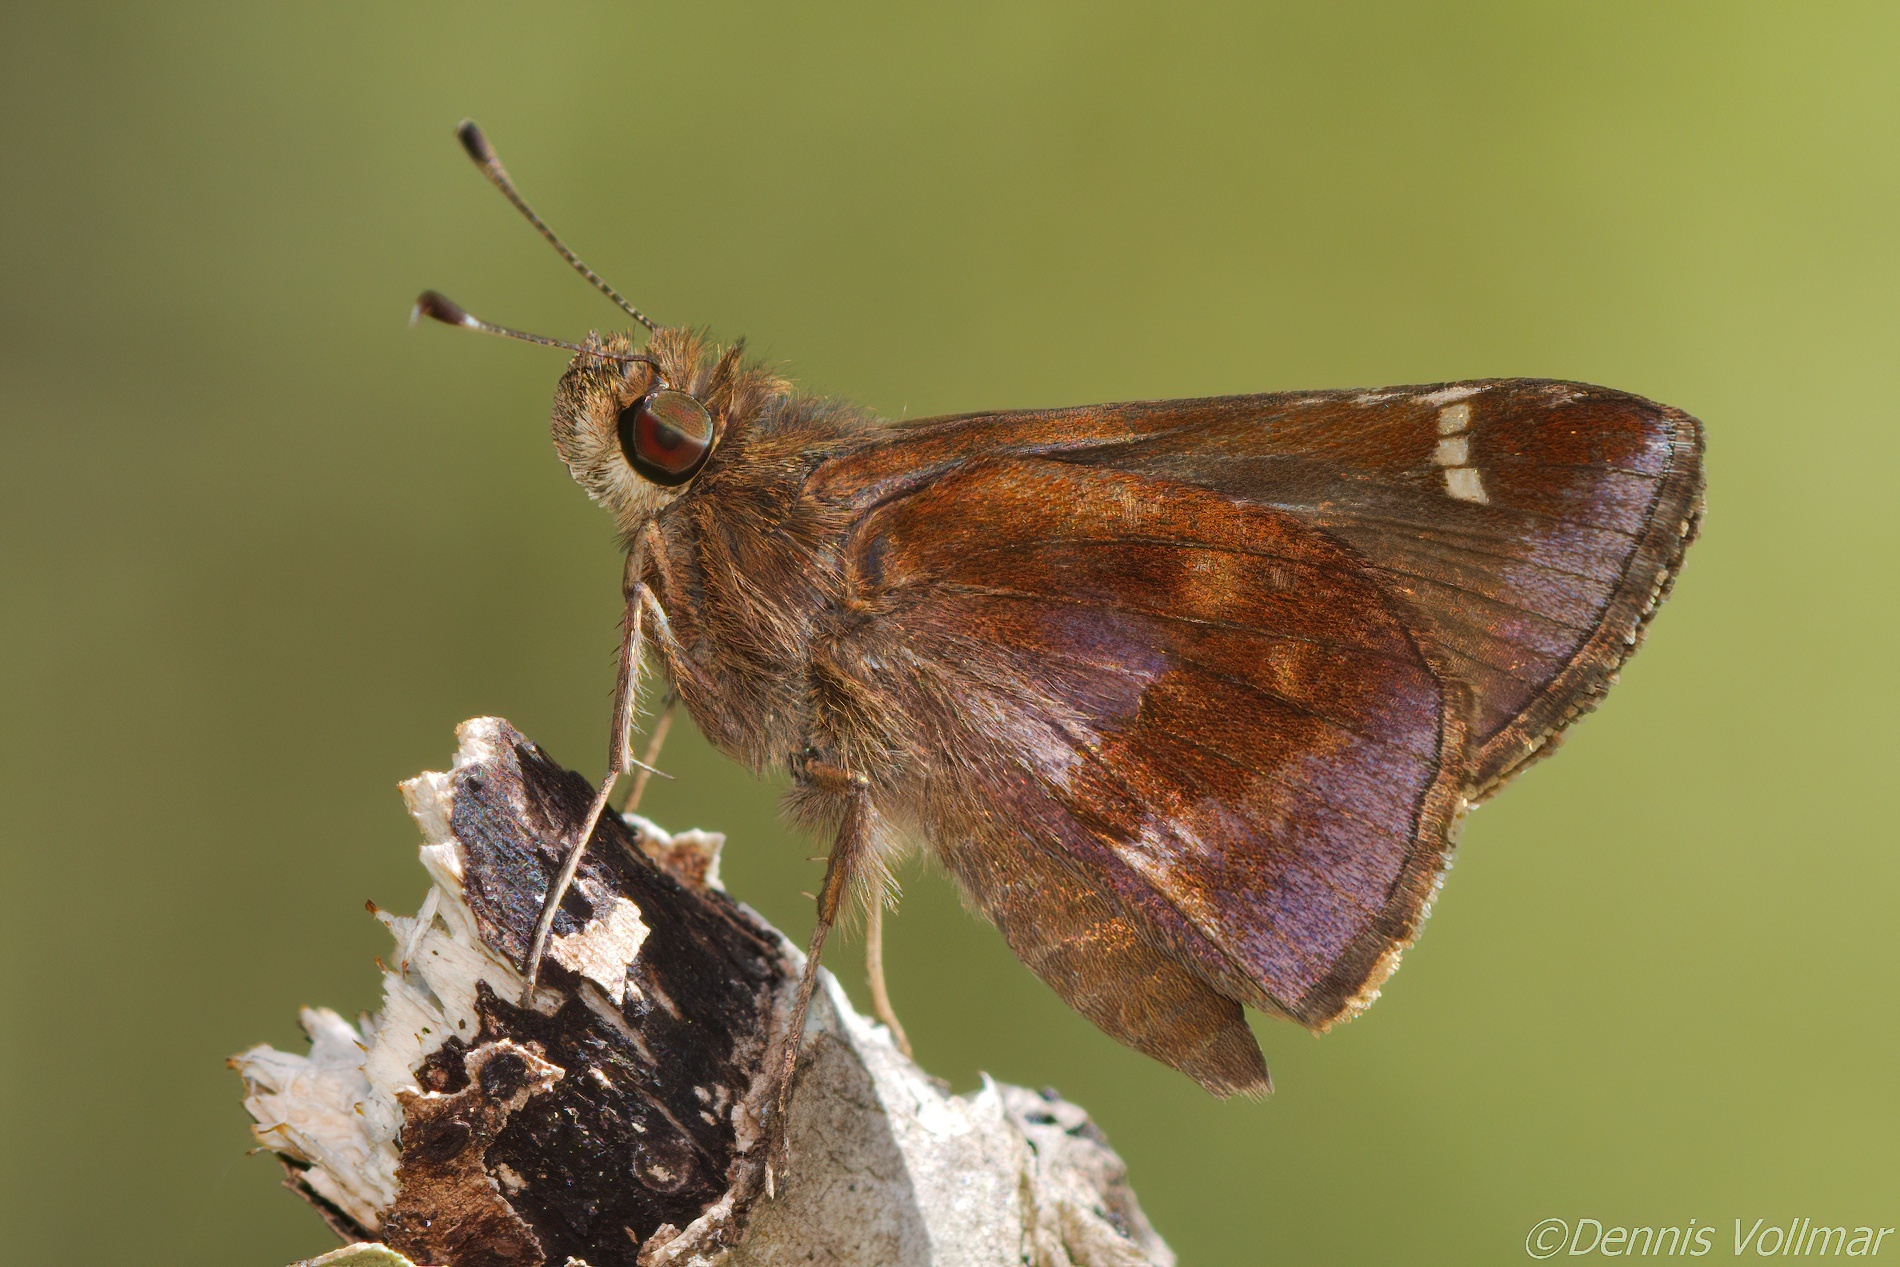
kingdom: Animalia
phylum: Arthropoda
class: Insecta
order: Lepidoptera
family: Hesperiidae
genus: Lerema
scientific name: Lerema accius
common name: Clouded skipper
